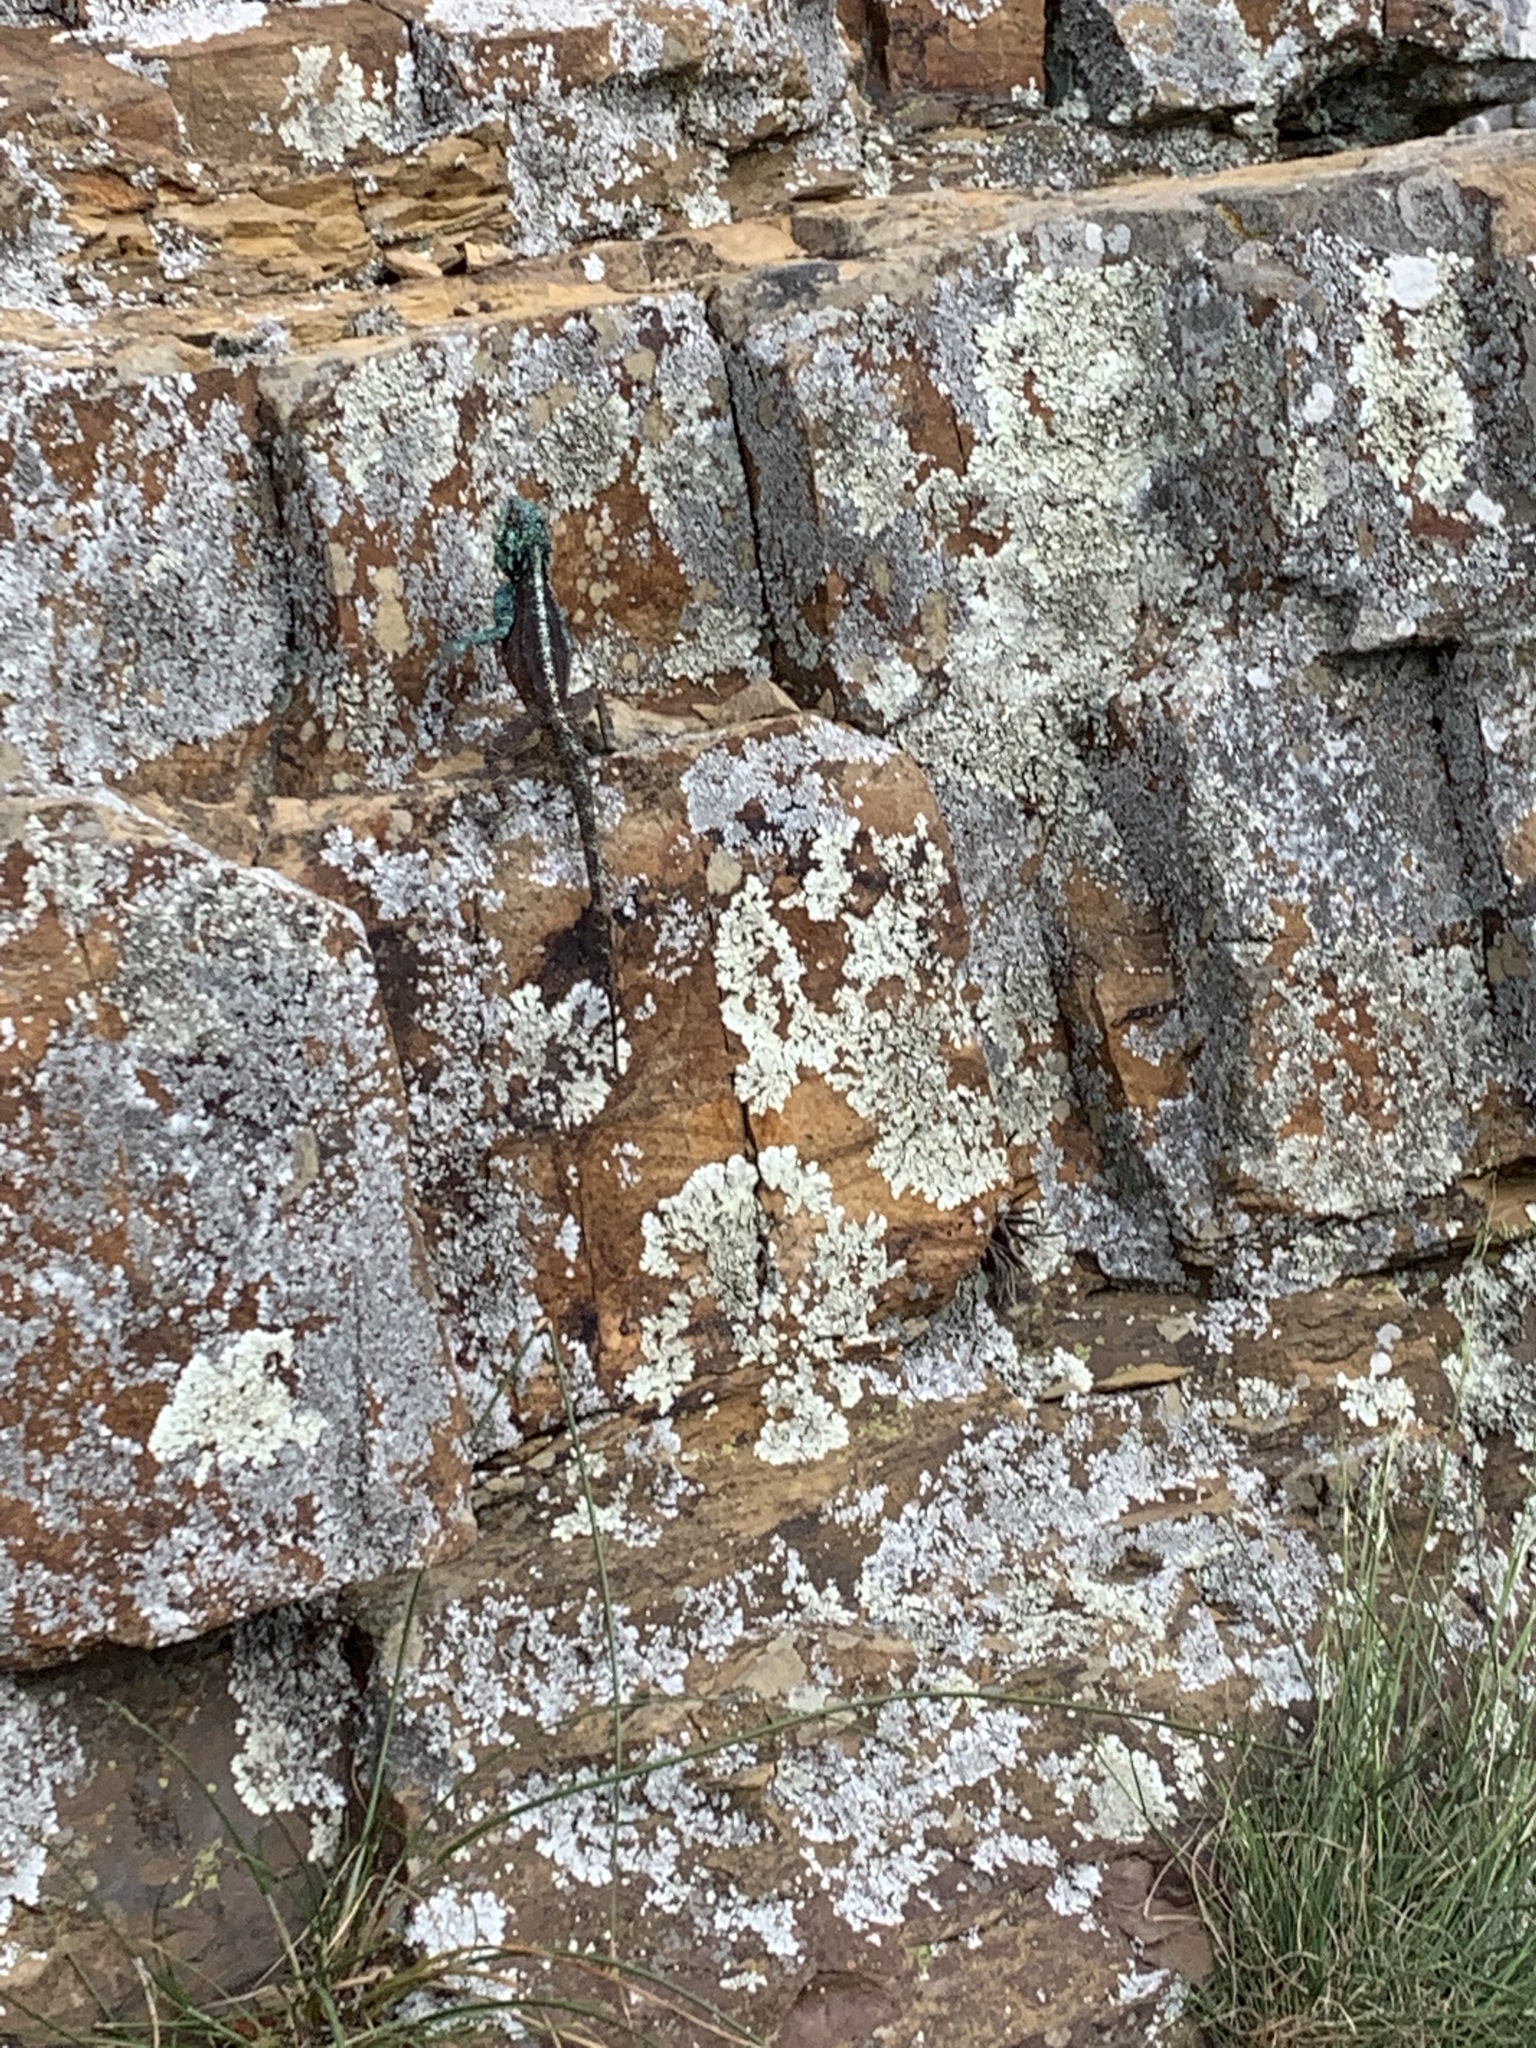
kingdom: Animalia
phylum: Chordata
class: Squamata
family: Agamidae
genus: Agama
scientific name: Agama atra
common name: Southern african rock agama
